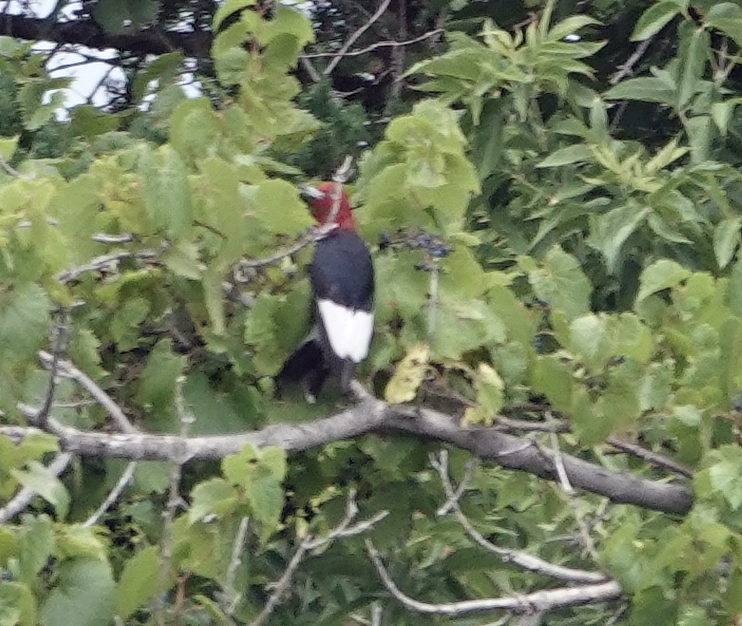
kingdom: Animalia
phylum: Chordata
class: Aves
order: Piciformes
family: Picidae
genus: Melanerpes
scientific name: Melanerpes erythrocephalus
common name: Red-headed woodpecker
